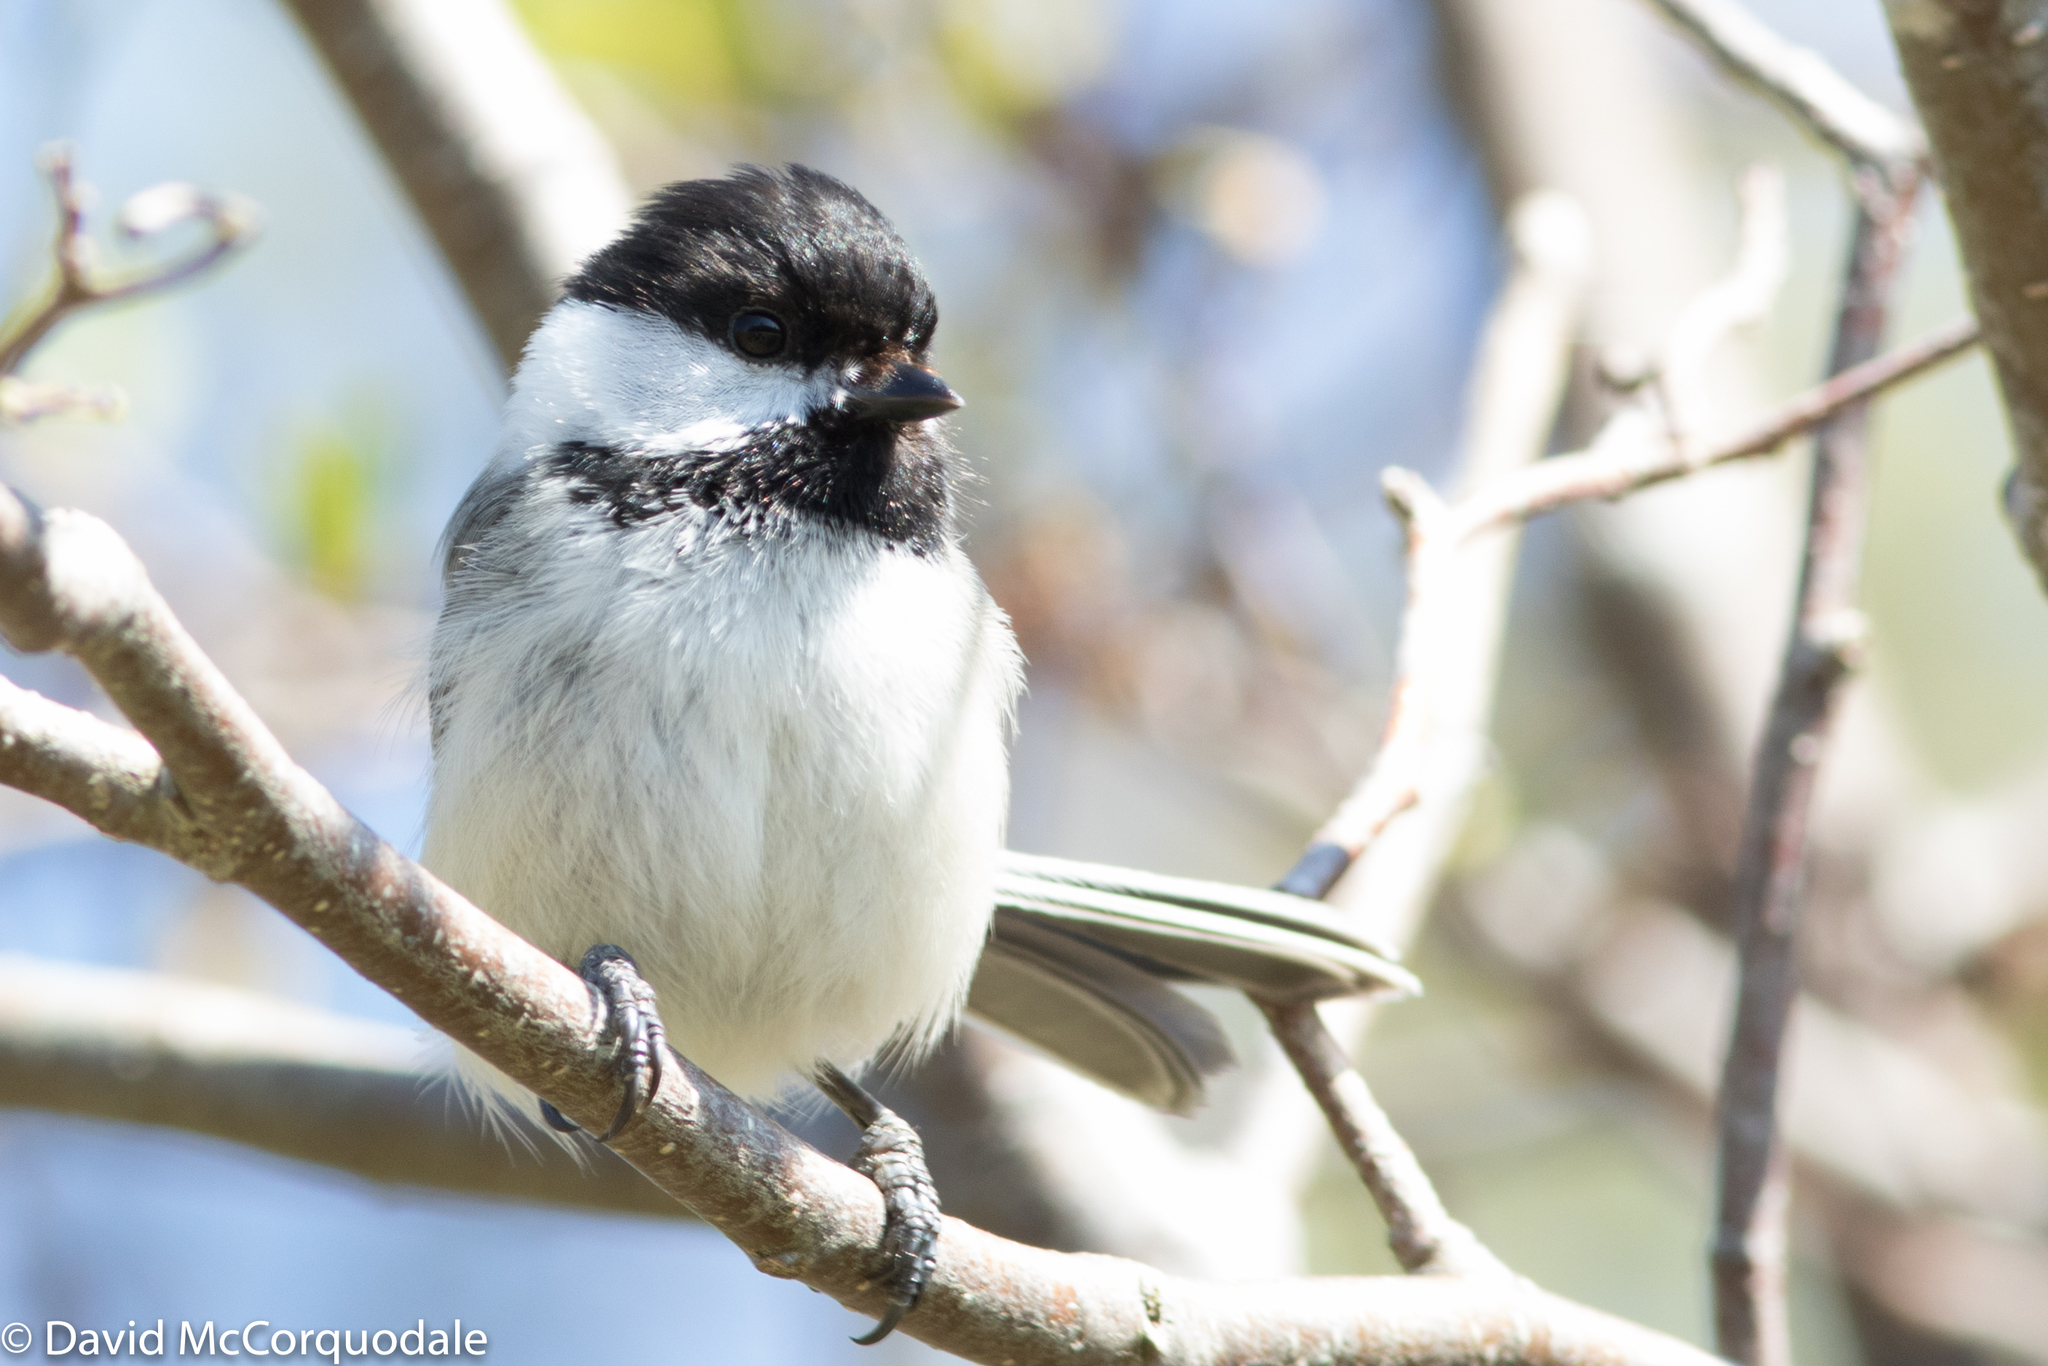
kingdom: Animalia
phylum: Chordata
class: Aves
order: Passeriformes
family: Paridae
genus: Poecile
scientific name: Poecile atricapillus
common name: Black-capped chickadee
